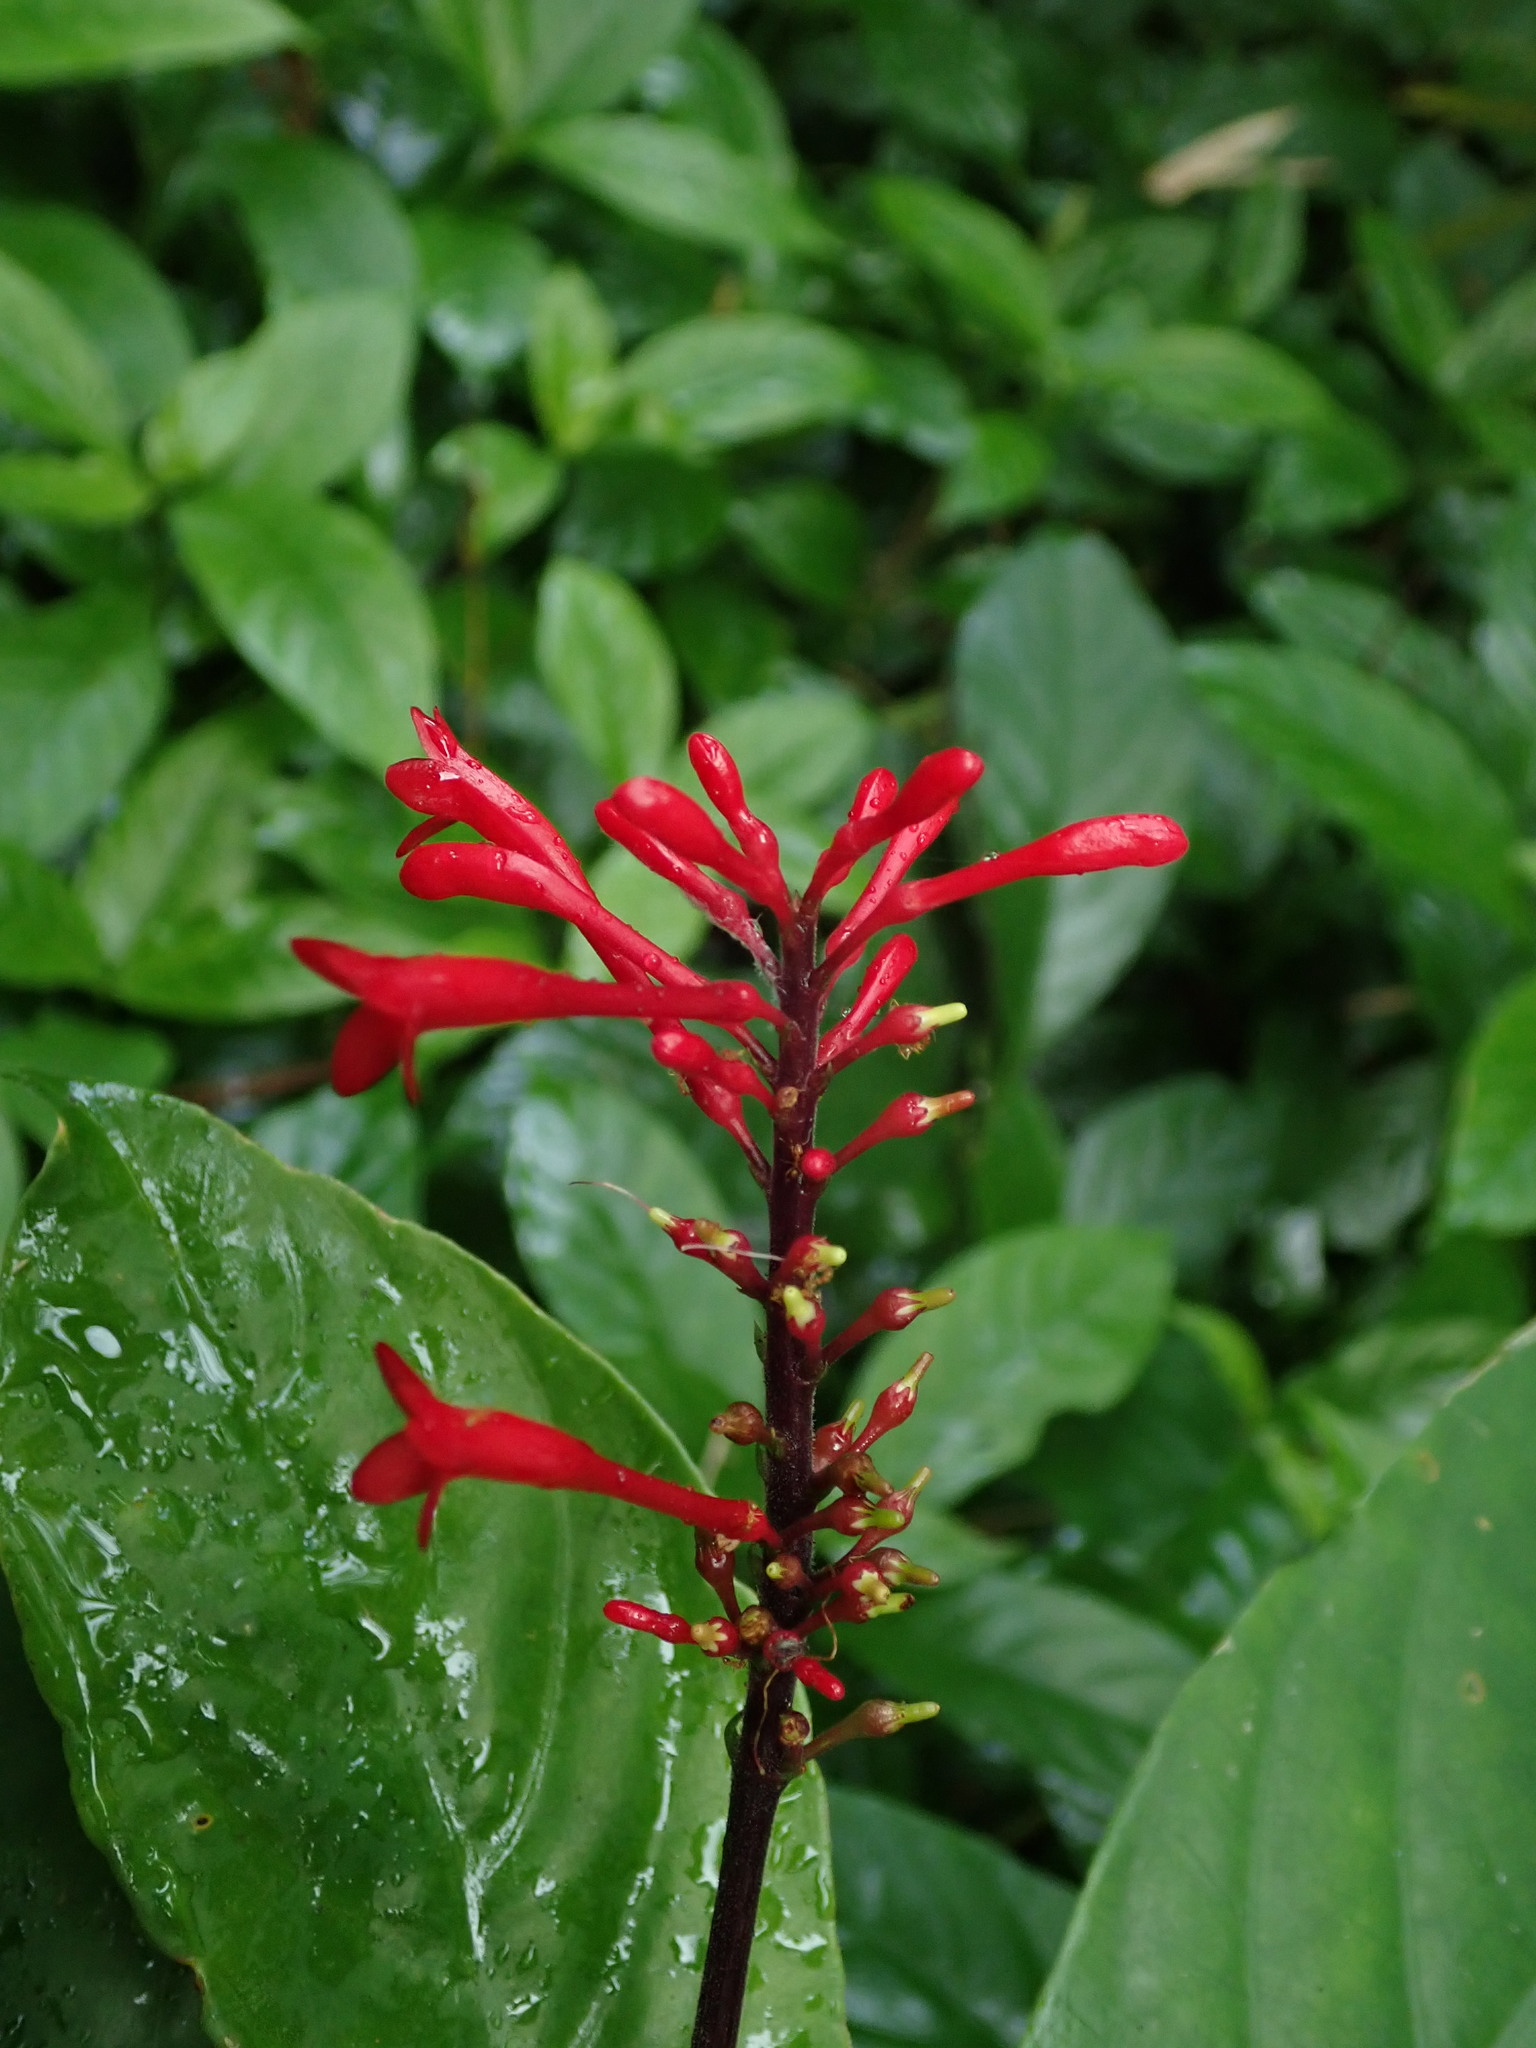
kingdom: Plantae
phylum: Tracheophyta
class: Magnoliopsida
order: Lamiales
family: Acanthaceae
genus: Odontonema
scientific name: Odontonema cuspidatum
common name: Mottled toothedthread
